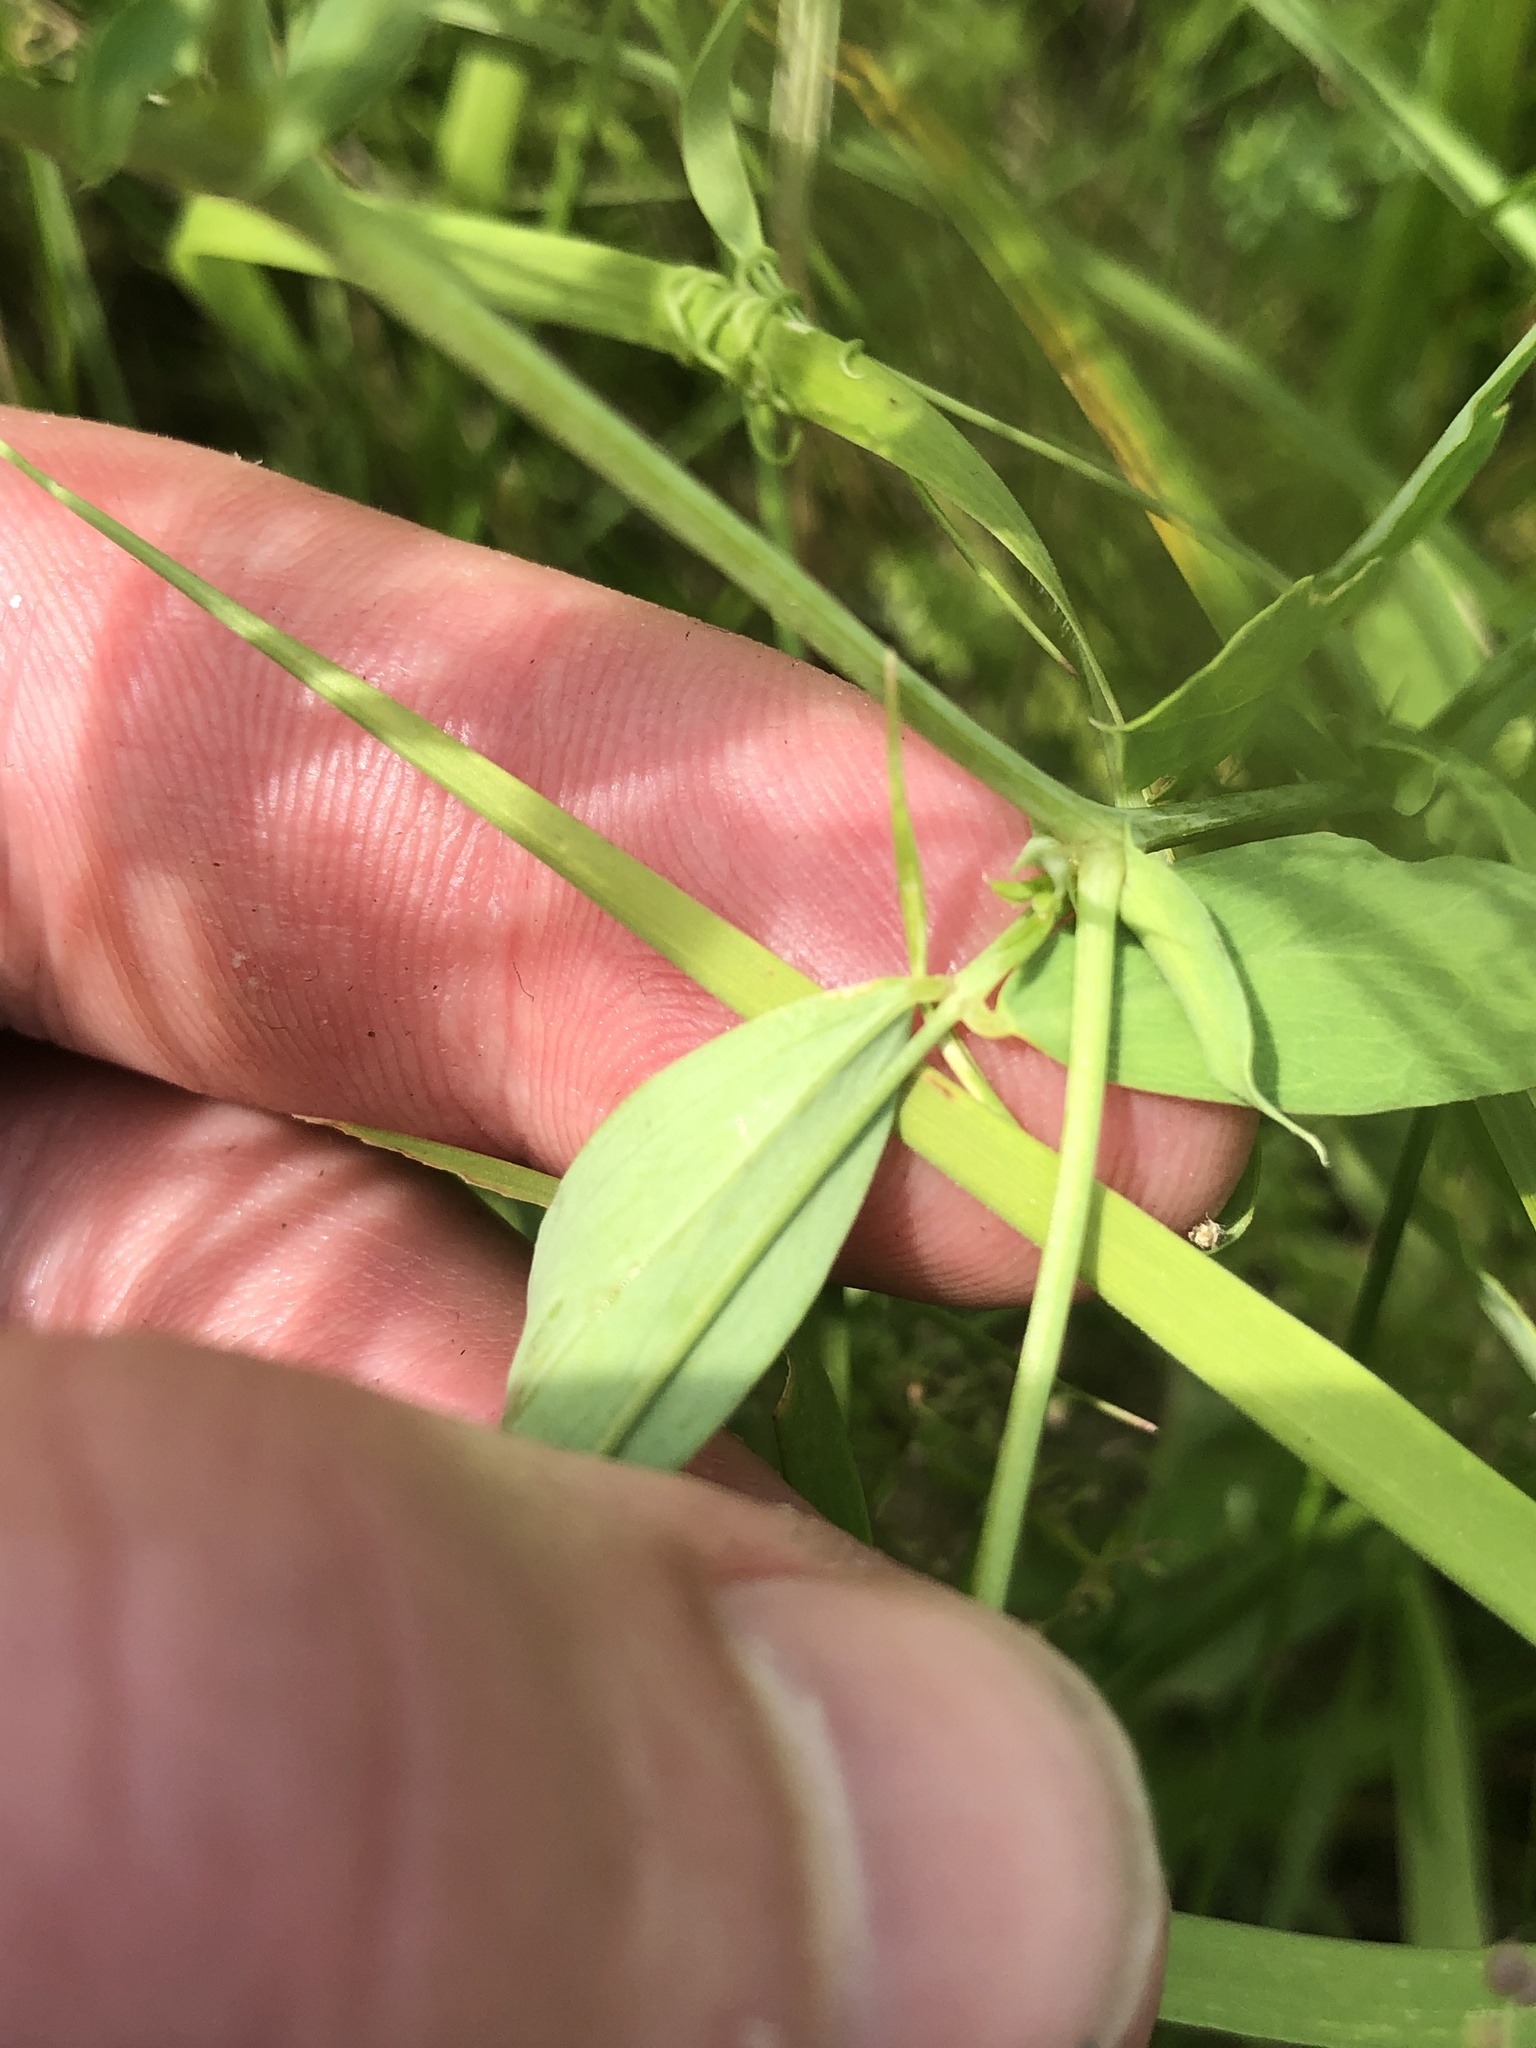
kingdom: Plantae
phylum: Tracheophyta
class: Magnoliopsida
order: Fabales
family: Fabaceae
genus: Lathyrus
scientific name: Lathyrus tuberosus
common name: Tuberous pea
